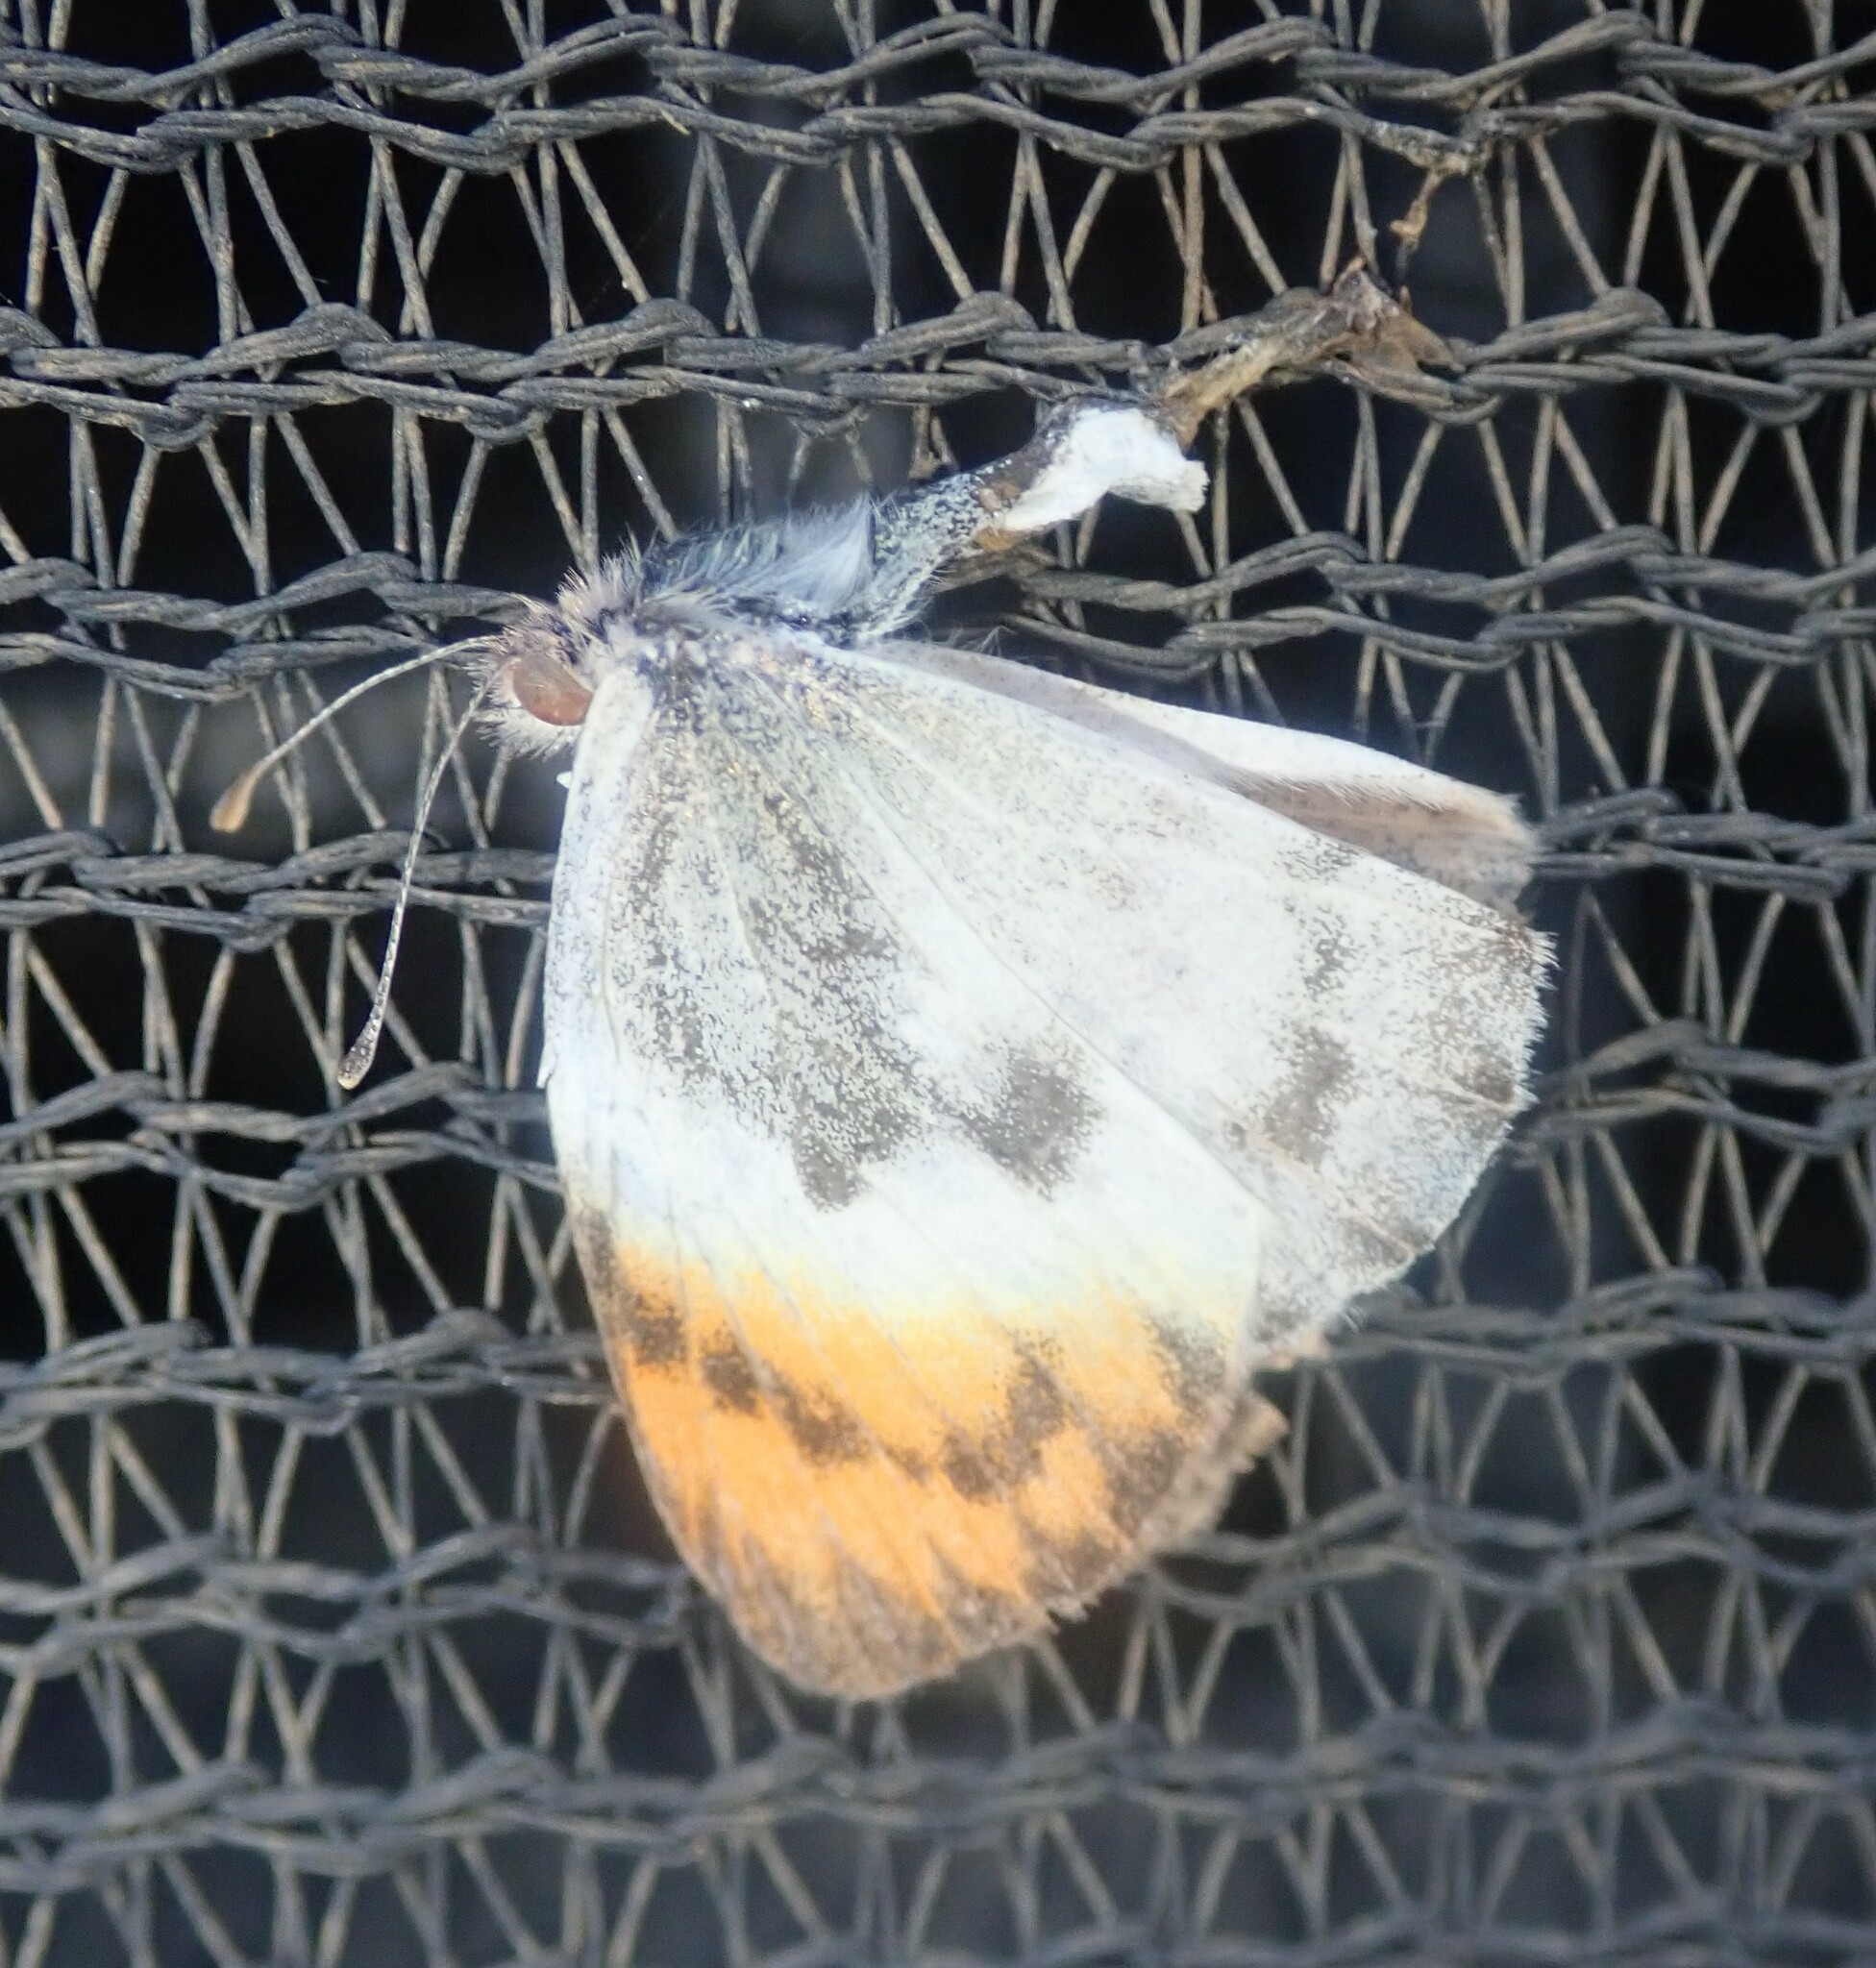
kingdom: Animalia
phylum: Arthropoda
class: Insecta
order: Lepidoptera
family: Pieridae
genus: Colotis
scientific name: Colotis evenina
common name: Common orange tip
